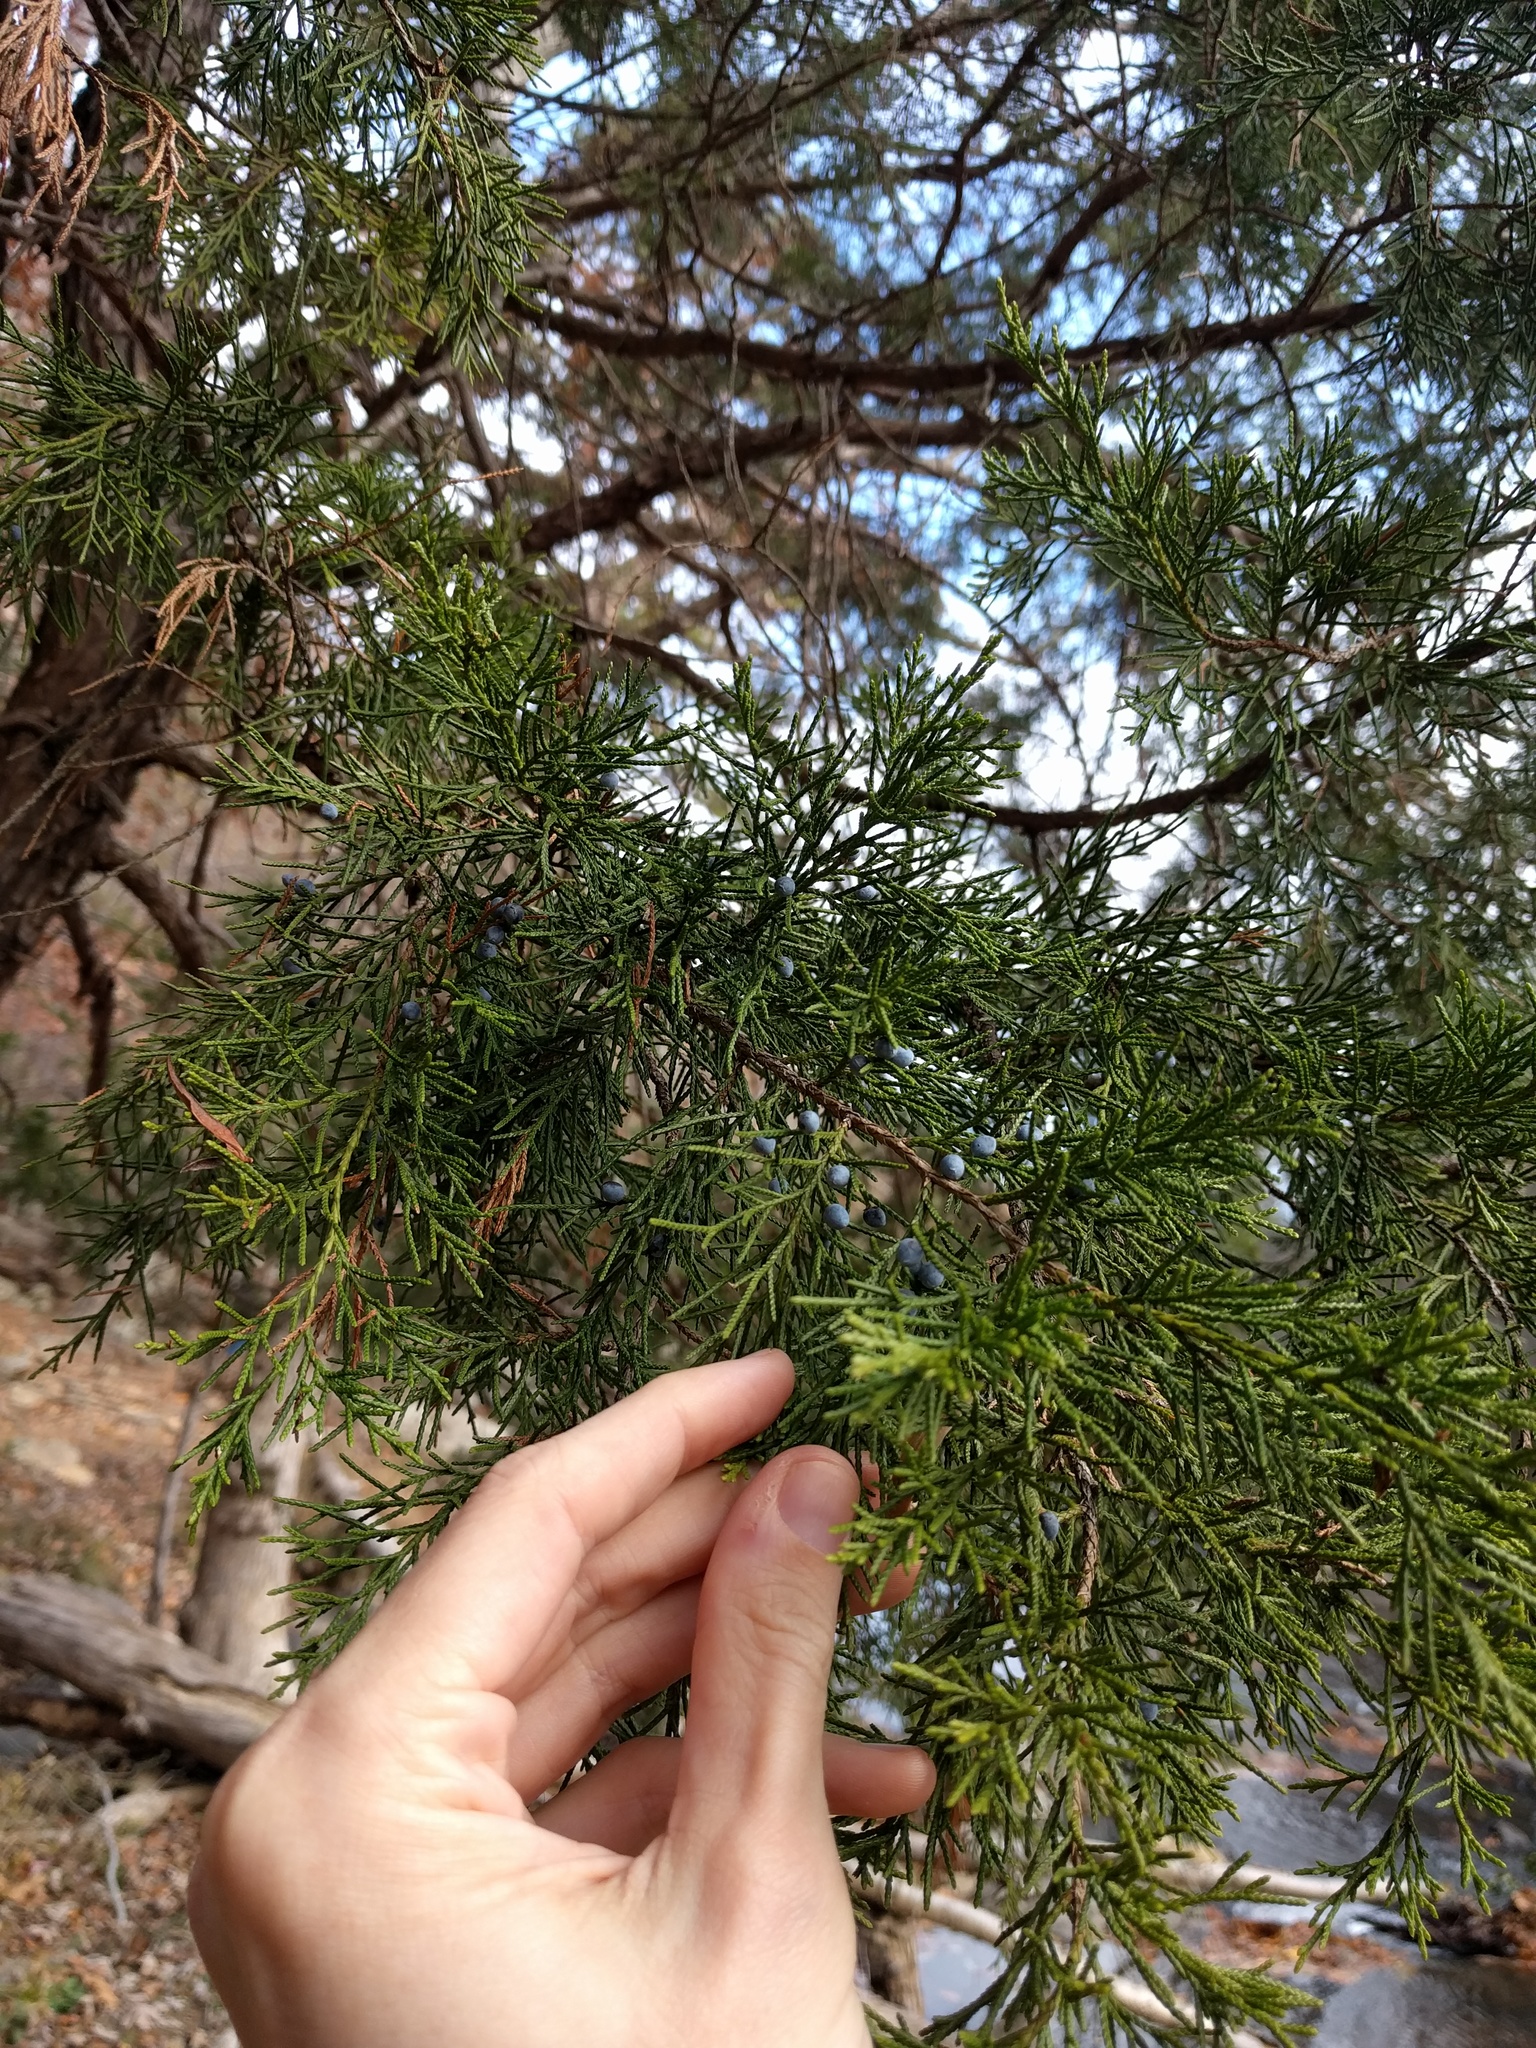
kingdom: Plantae
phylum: Tracheophyta
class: Pinopsida
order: Pinales
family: Cupressaceae
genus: Juniperus
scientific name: Juniperus virginiana
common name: Red juniper
